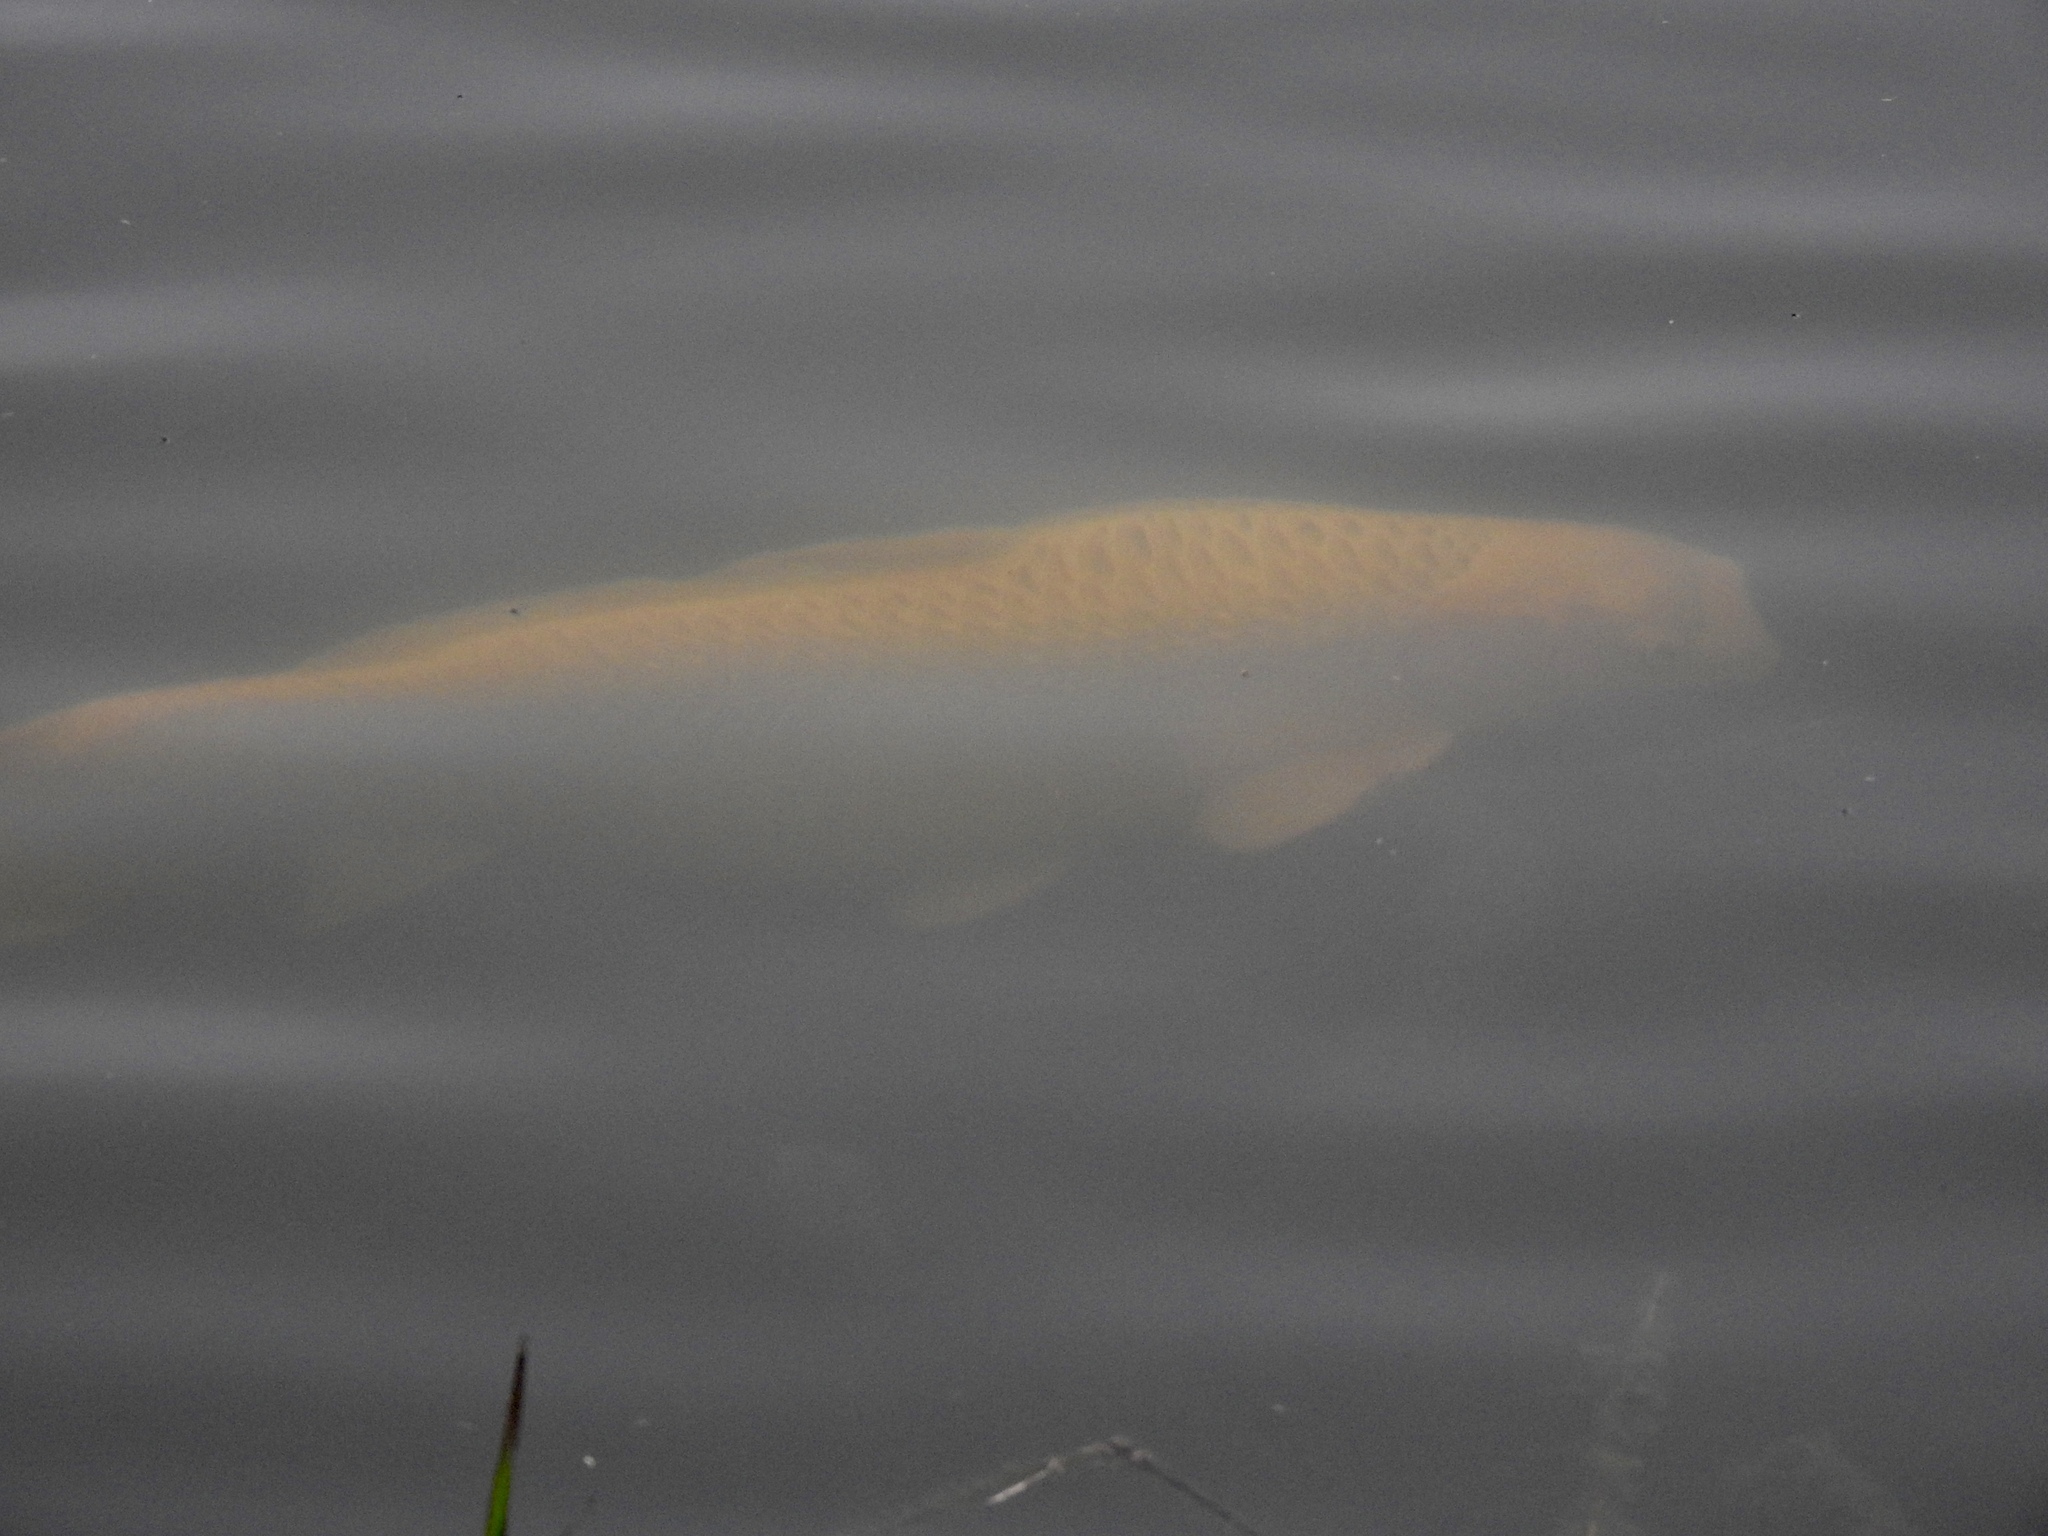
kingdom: Animalia
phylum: Chordata
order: Cypriniformes
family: Cyprinidae
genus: Cyprinus
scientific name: Cyprinus rubrofuscus
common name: Koi
